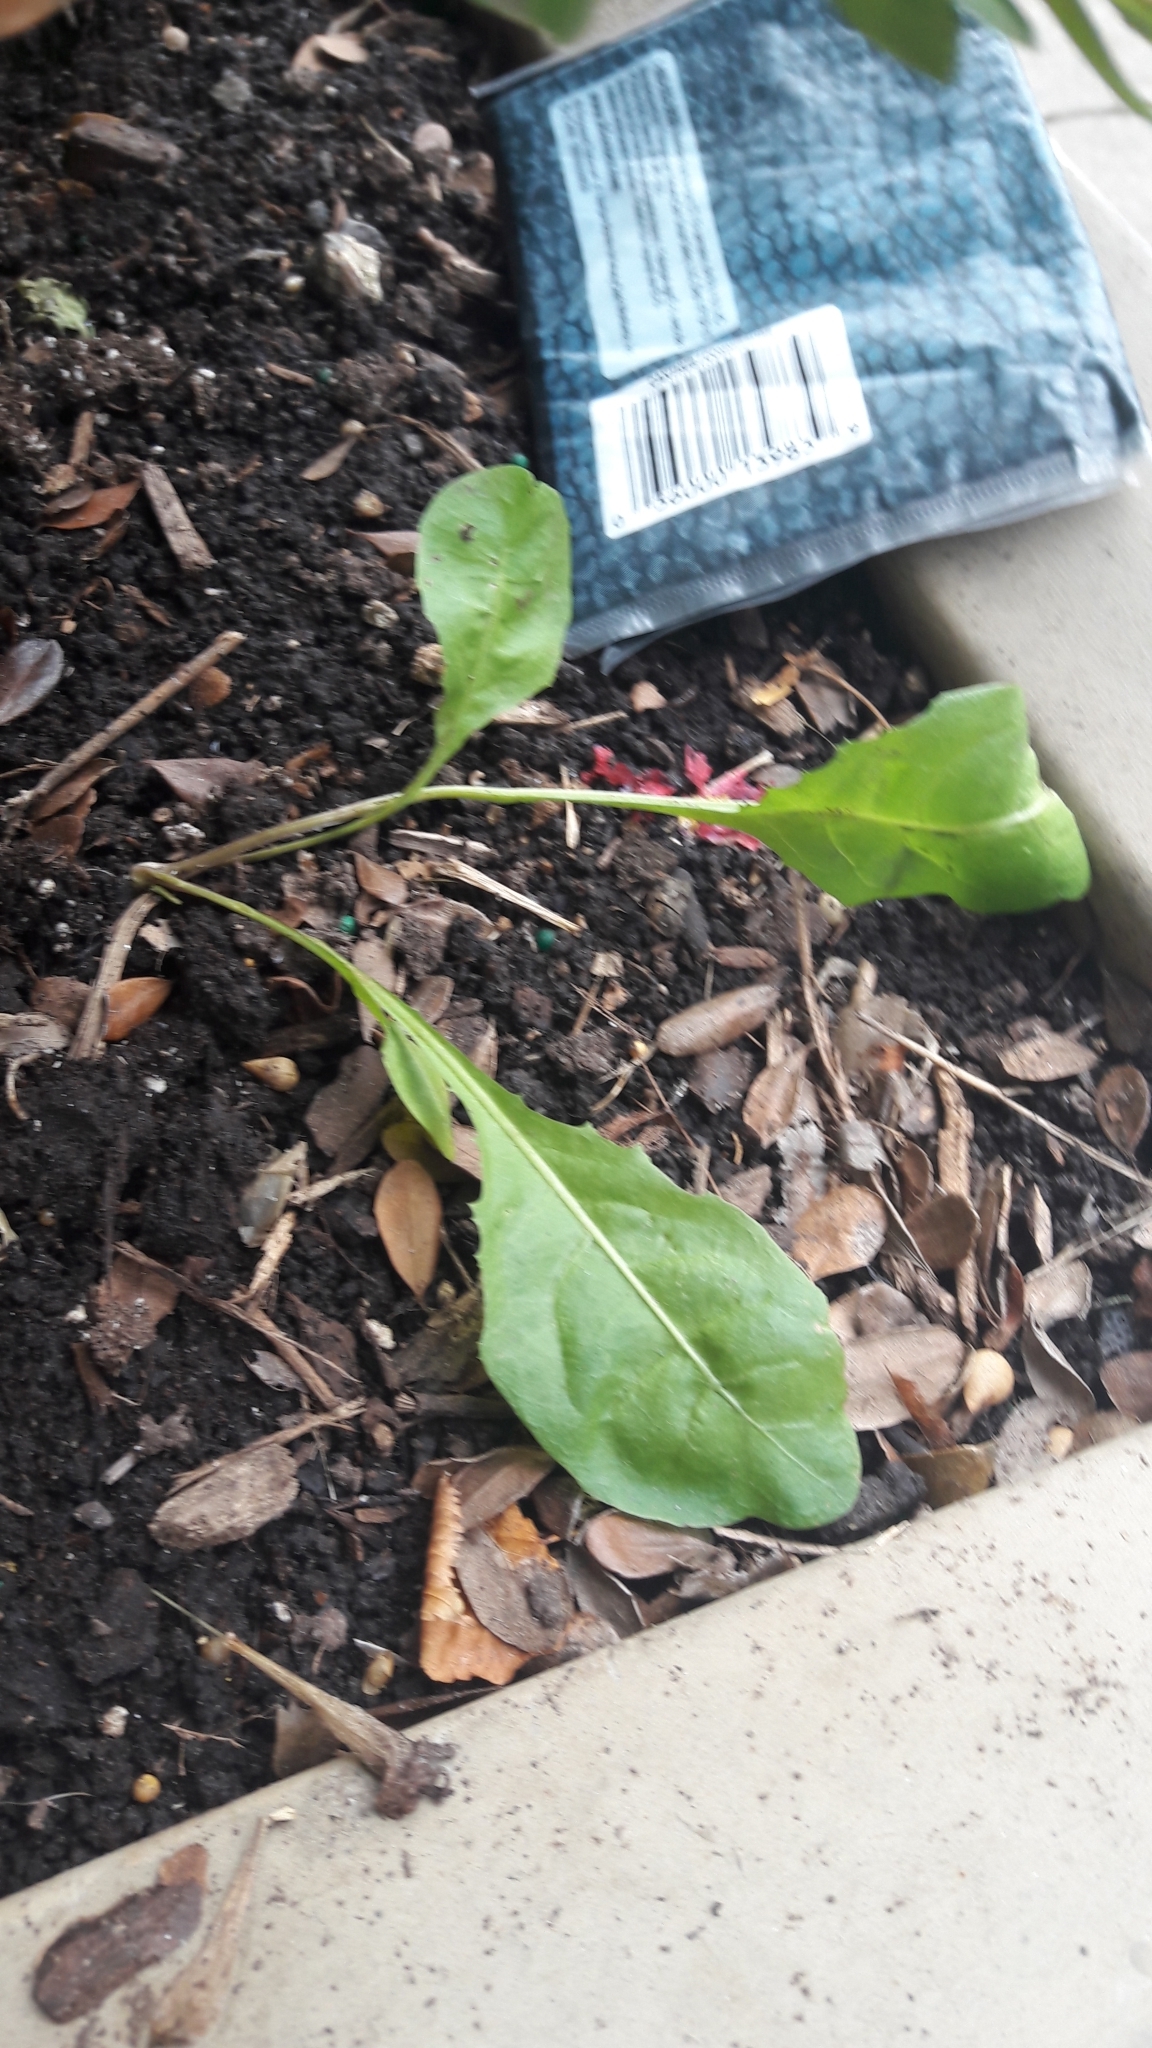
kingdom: Plantae
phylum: Tracheophyta
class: Magnoliopsida
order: Asterales
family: Asteraceae
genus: Taraxacum
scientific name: Taraxacum officinale
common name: Common dandelion
